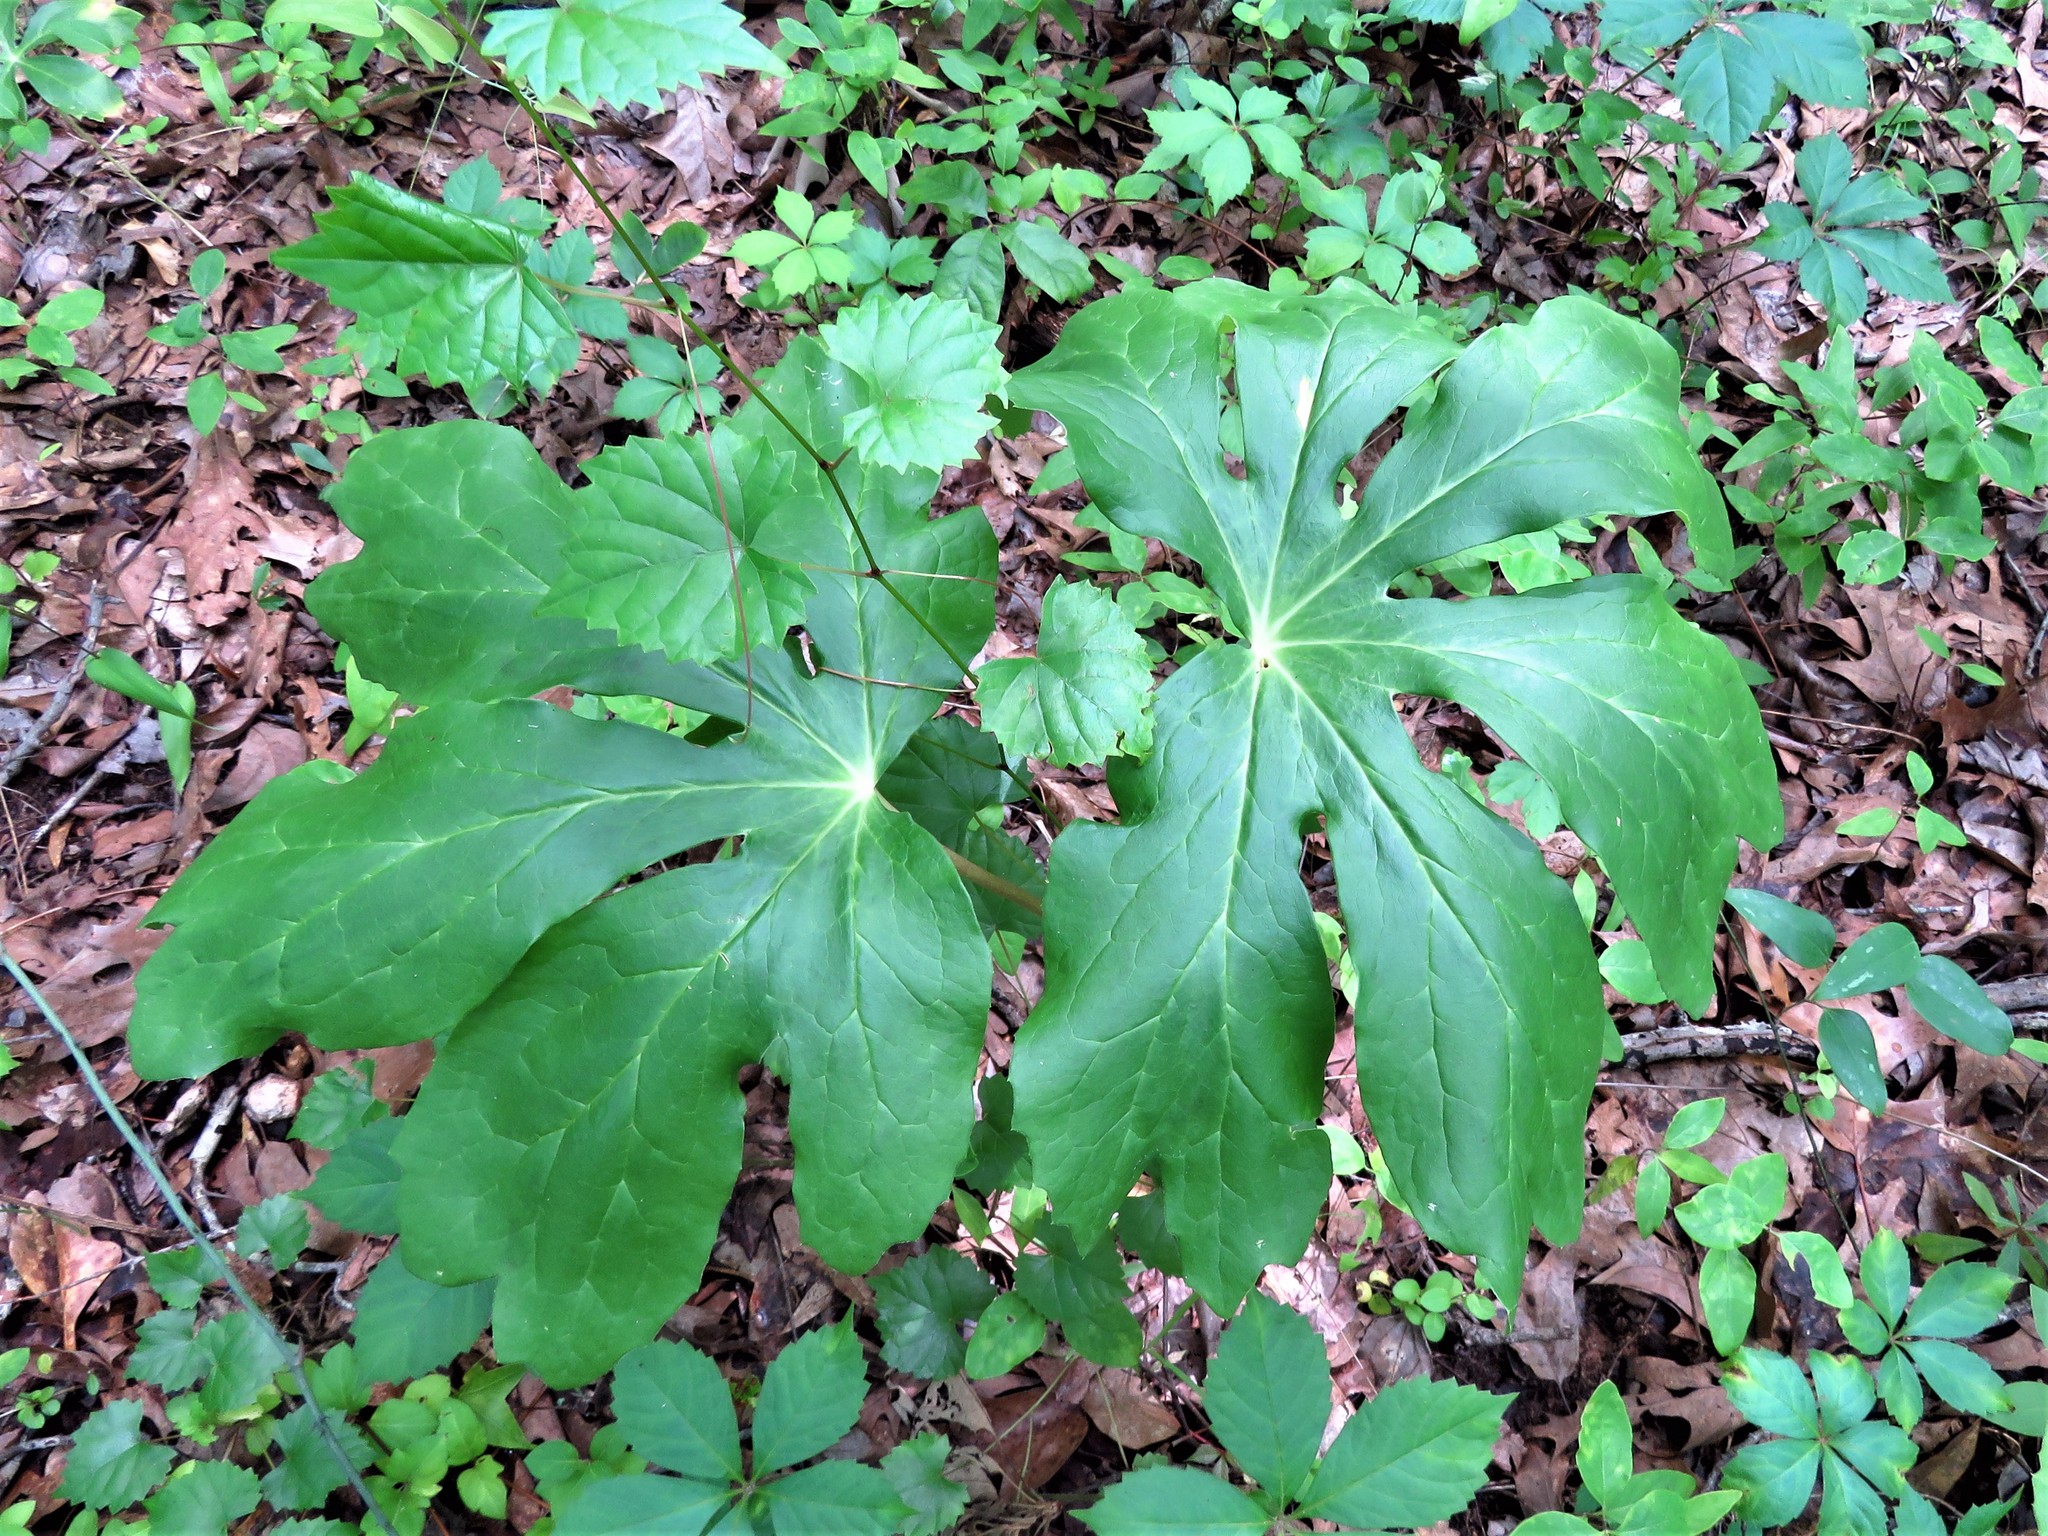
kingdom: Plantae
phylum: Tracheophyta
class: Magnoliopsida
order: Ranunculales
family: Berberidaceae
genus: Podophyllum
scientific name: Podophyllum peltatum
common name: Wild mandrake
